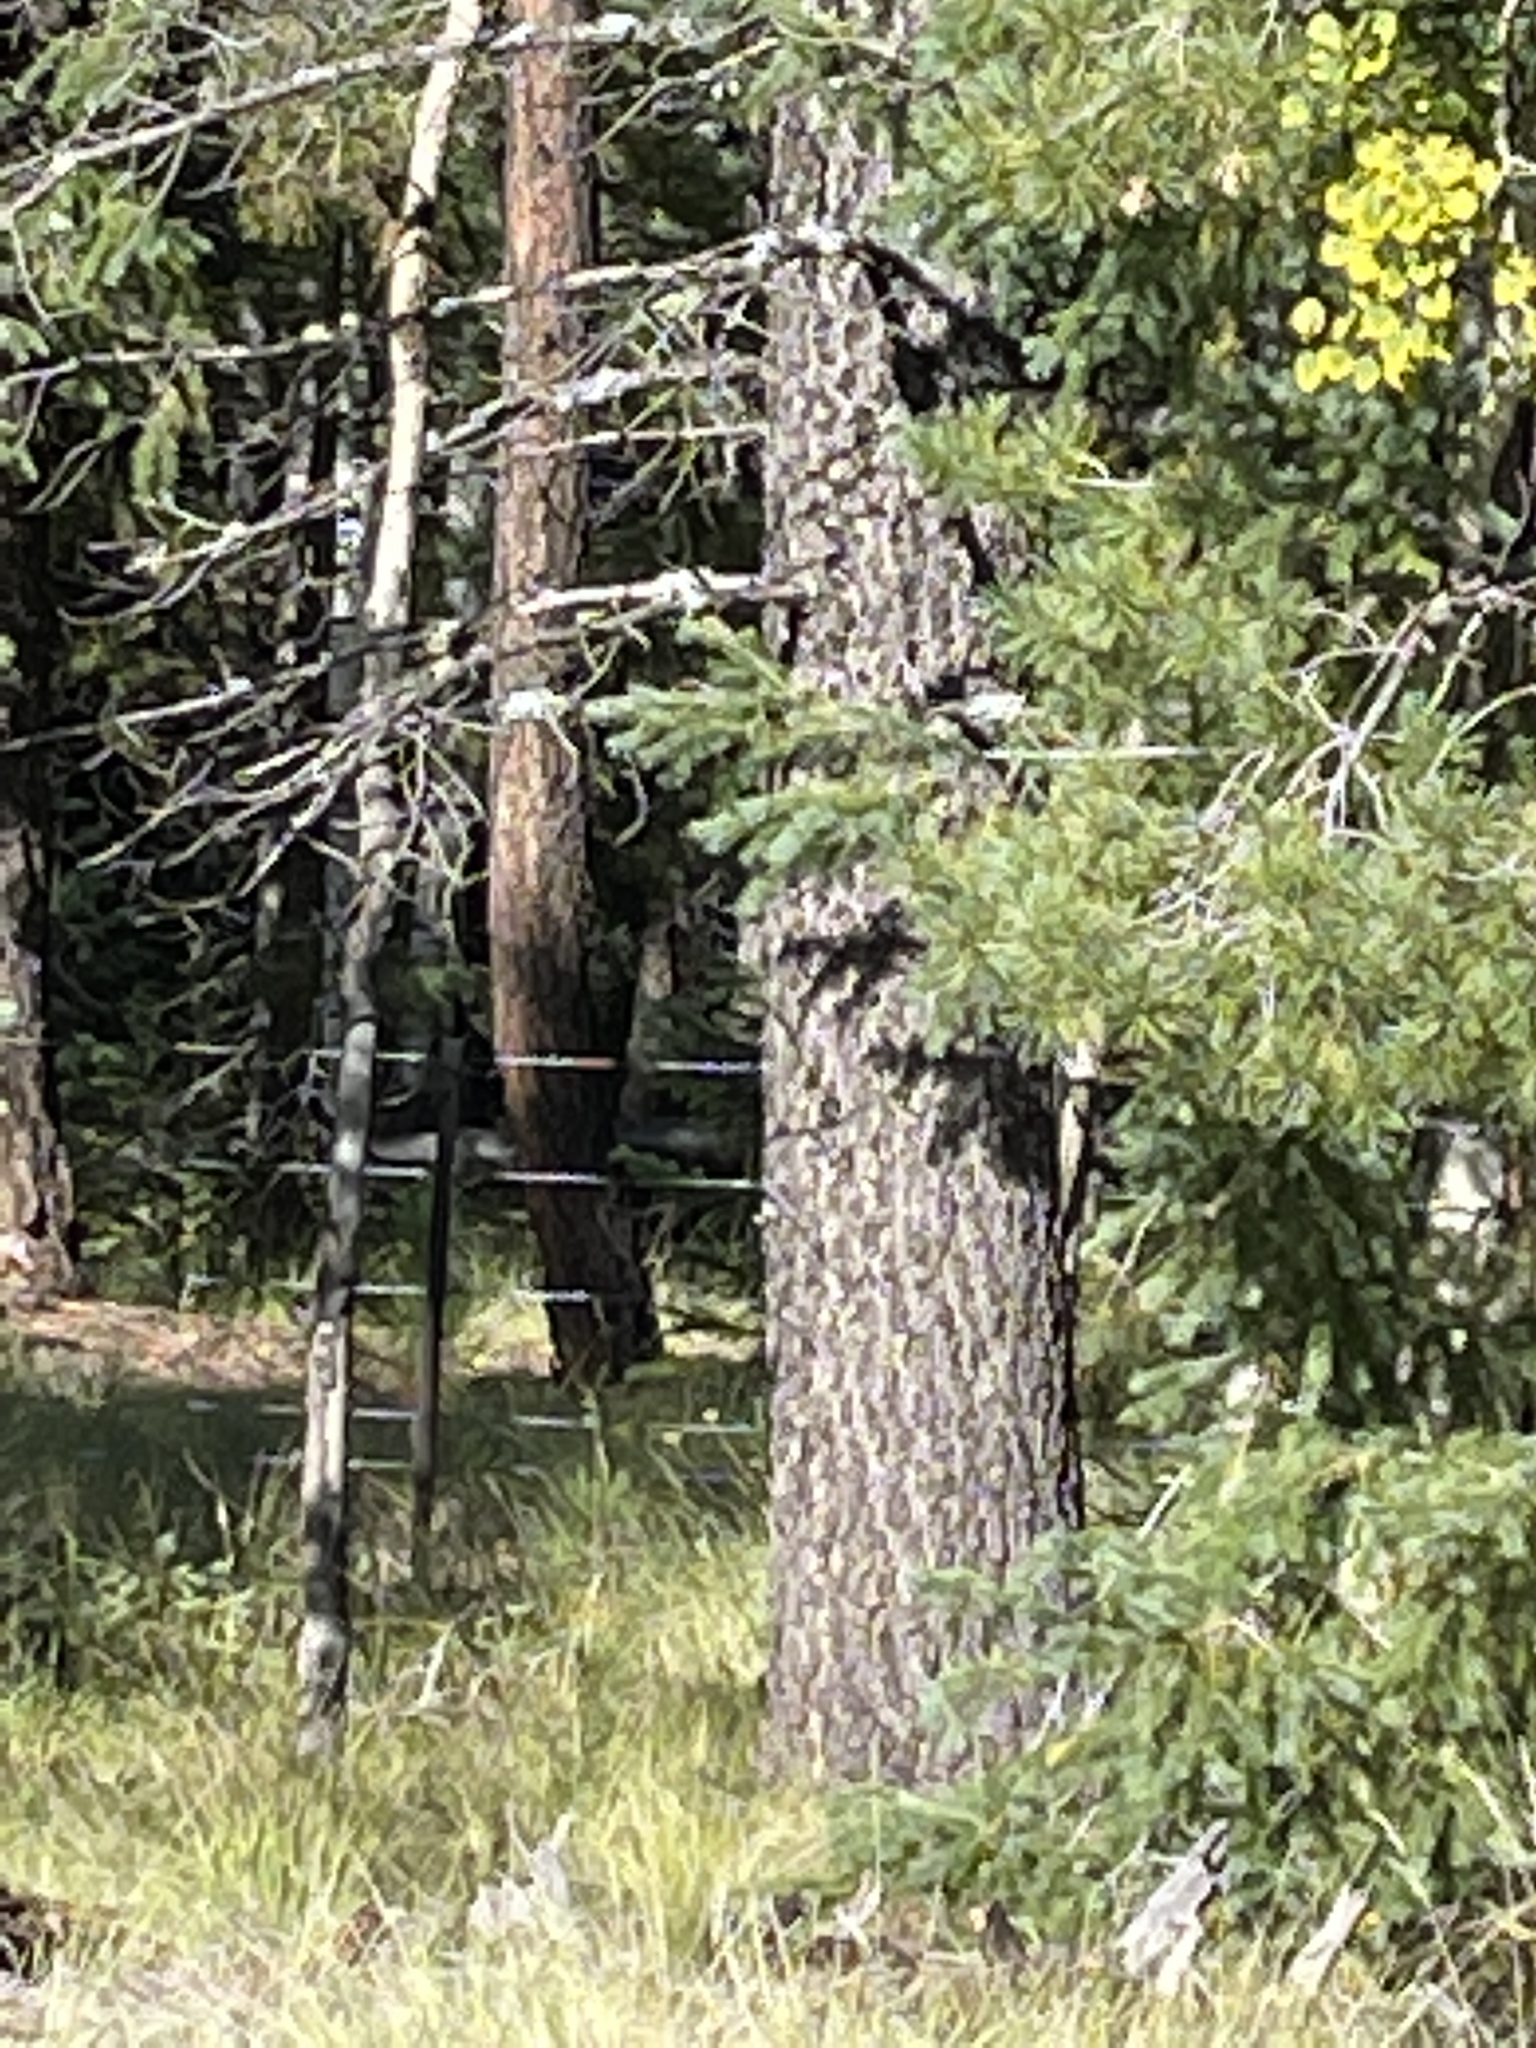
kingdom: Plantae
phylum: Tracheophyta
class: Pinopsida
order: Pinales
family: Pinaceae
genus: Pinus
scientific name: Pinus strobiformis
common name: Southwestern white pine
